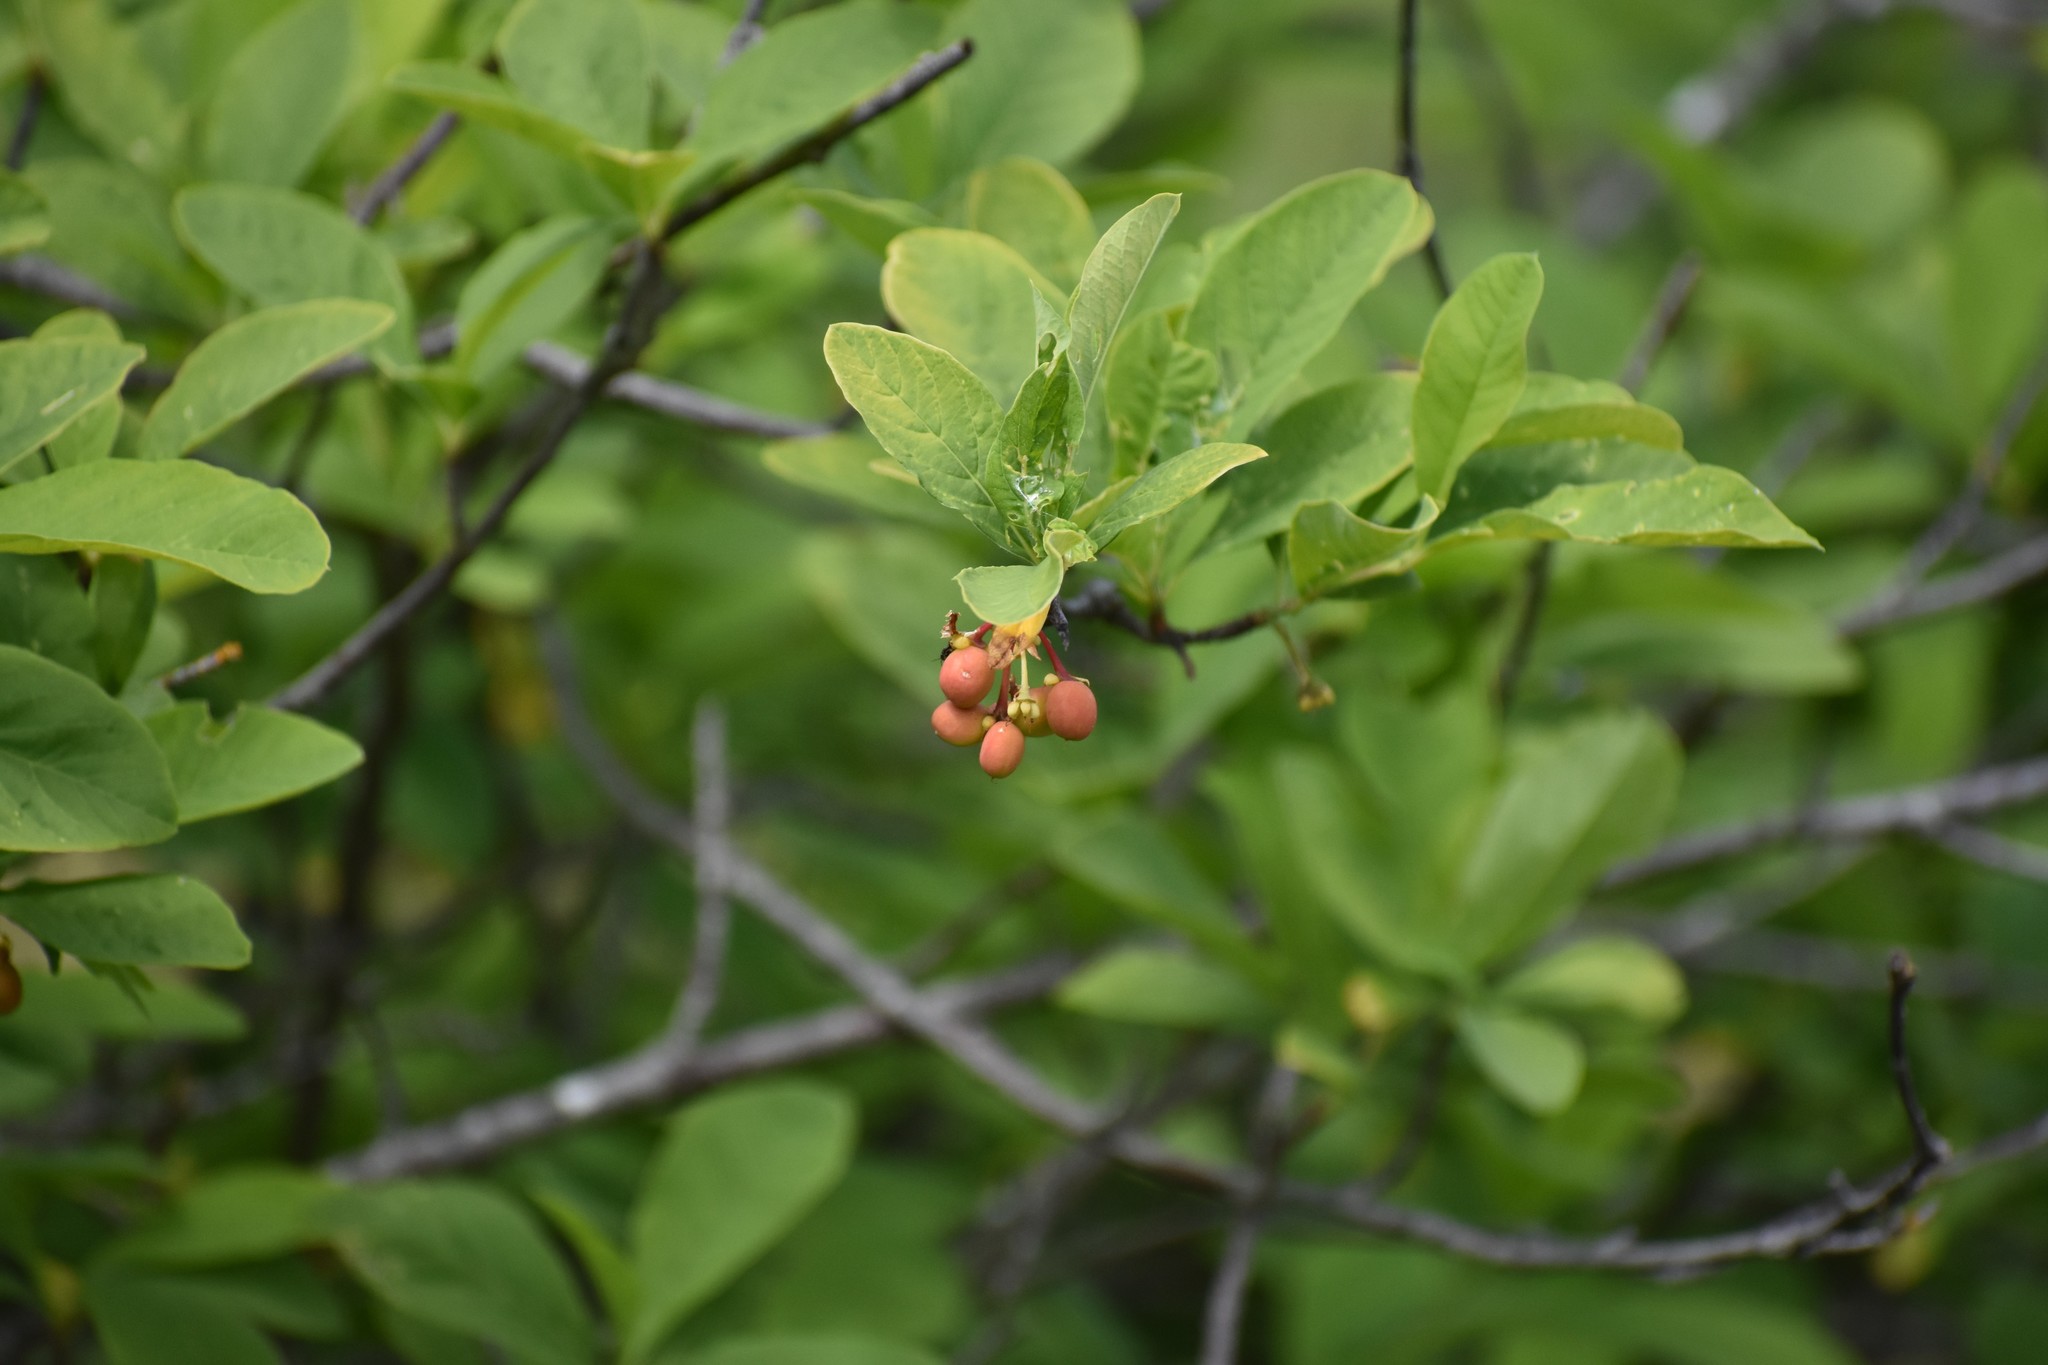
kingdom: Plantae
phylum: Tracheophyta
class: Magnoliopsida
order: Rosales
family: Rosaceae
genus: Oemleria
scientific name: Oemleria cerasiformis
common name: Osoberry
